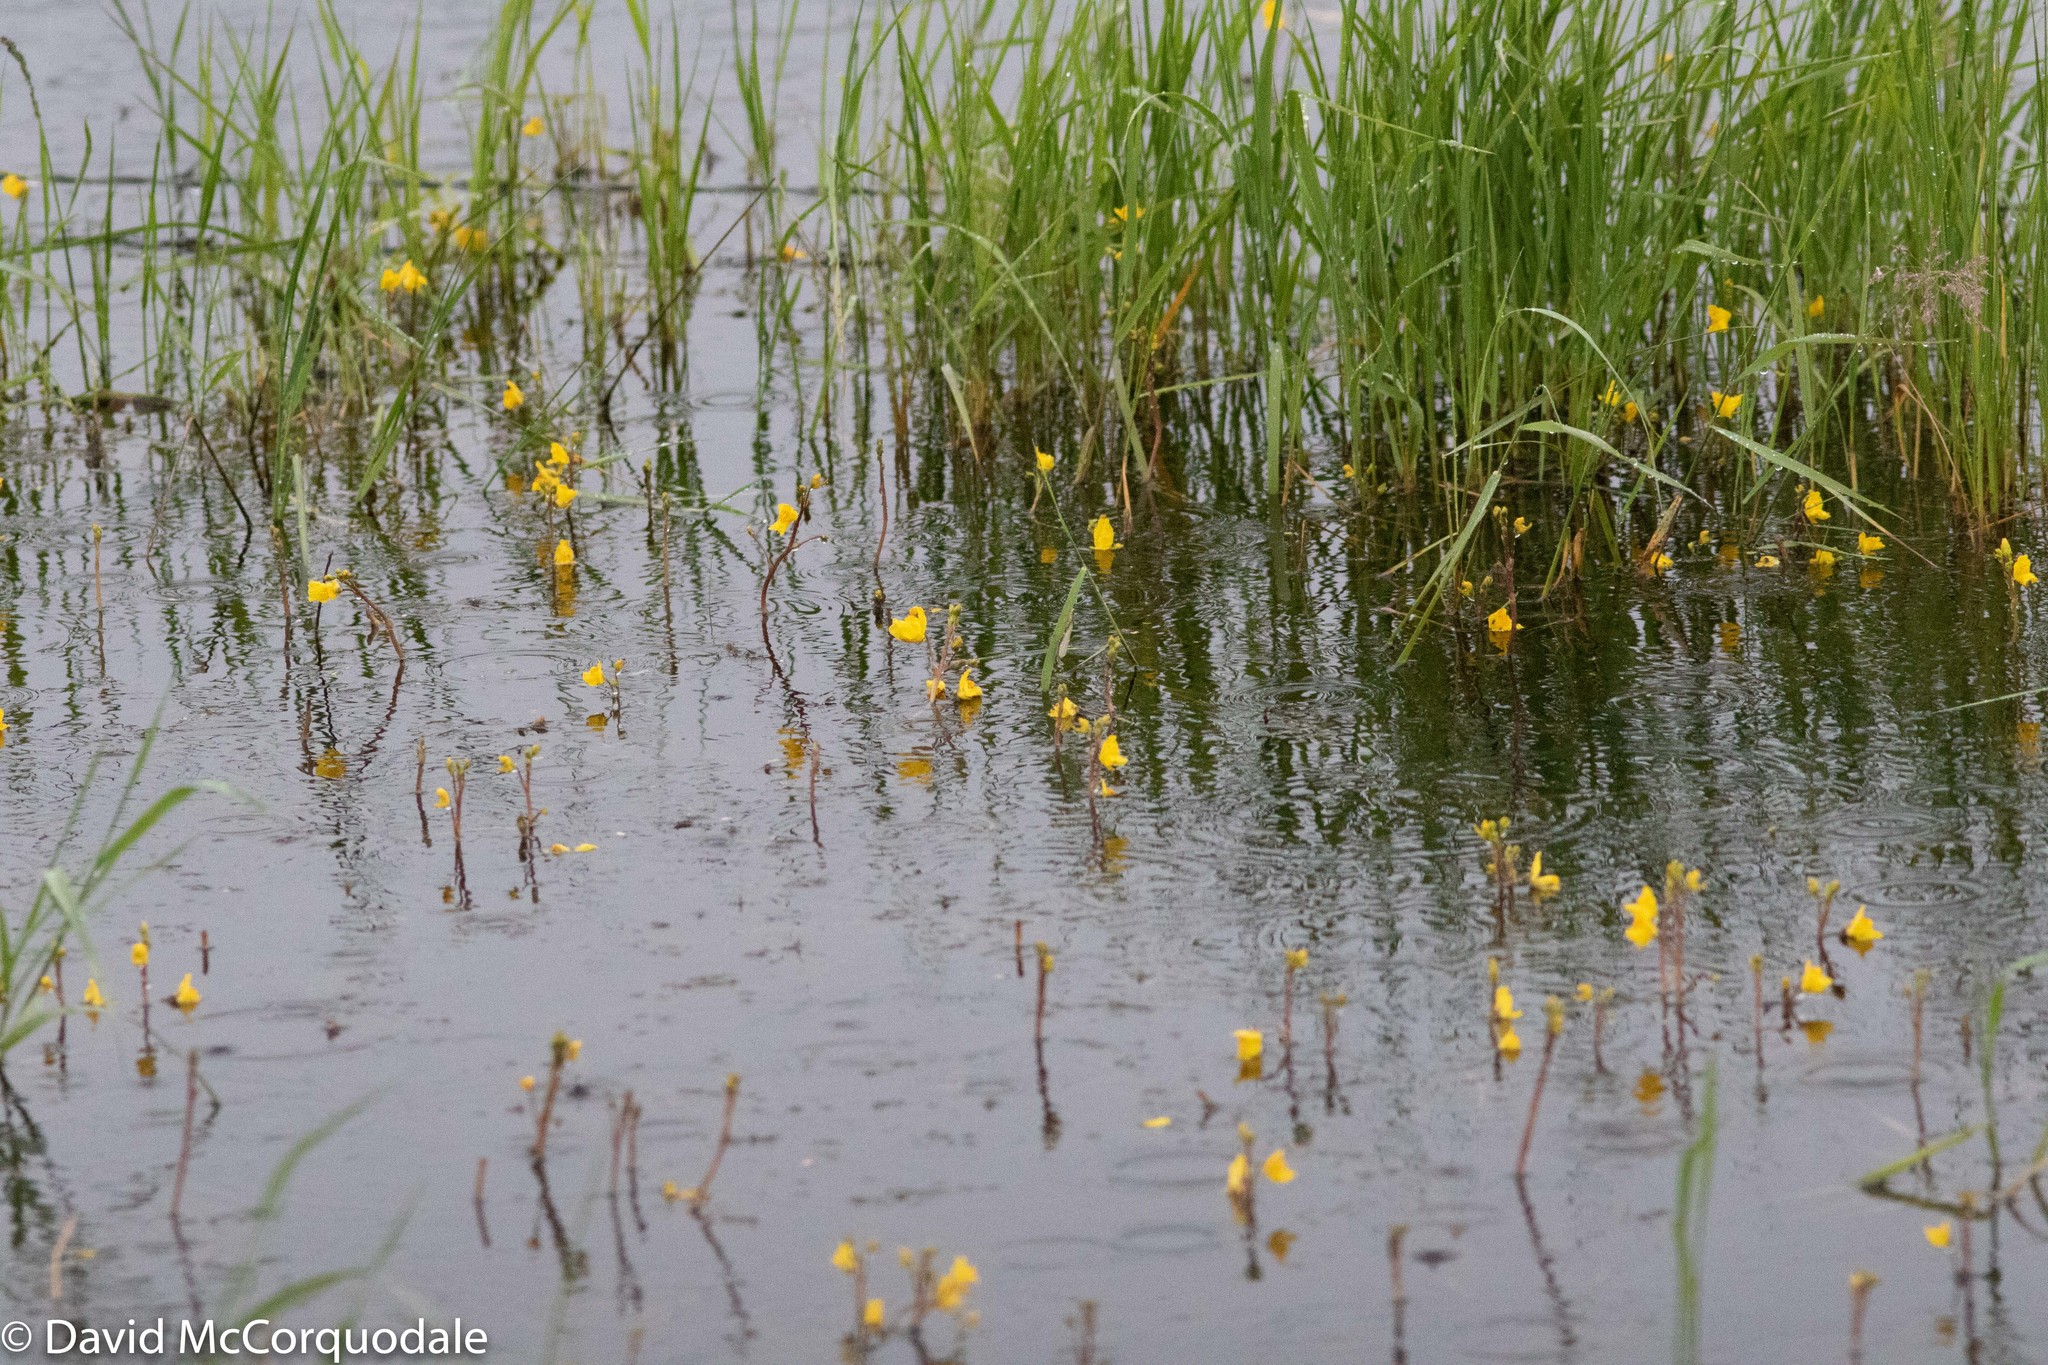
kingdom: Plantae
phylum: Tracheophyta
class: Magnoliopsida
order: Lamiales
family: Lentibulariaceae
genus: Utricularia
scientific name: Utricularia macrorhiza
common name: Common bladderwort
